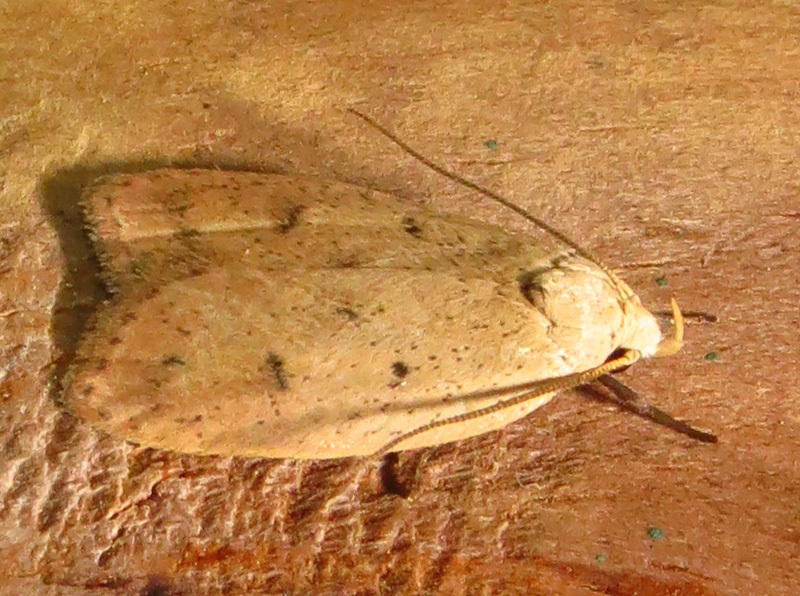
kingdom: Animalia
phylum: Arthropoda
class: Insecta
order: Lepidoptera
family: Peleopodidae
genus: Machimia
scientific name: Machimia tentoriferella
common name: Gold-striped leaftier moth
